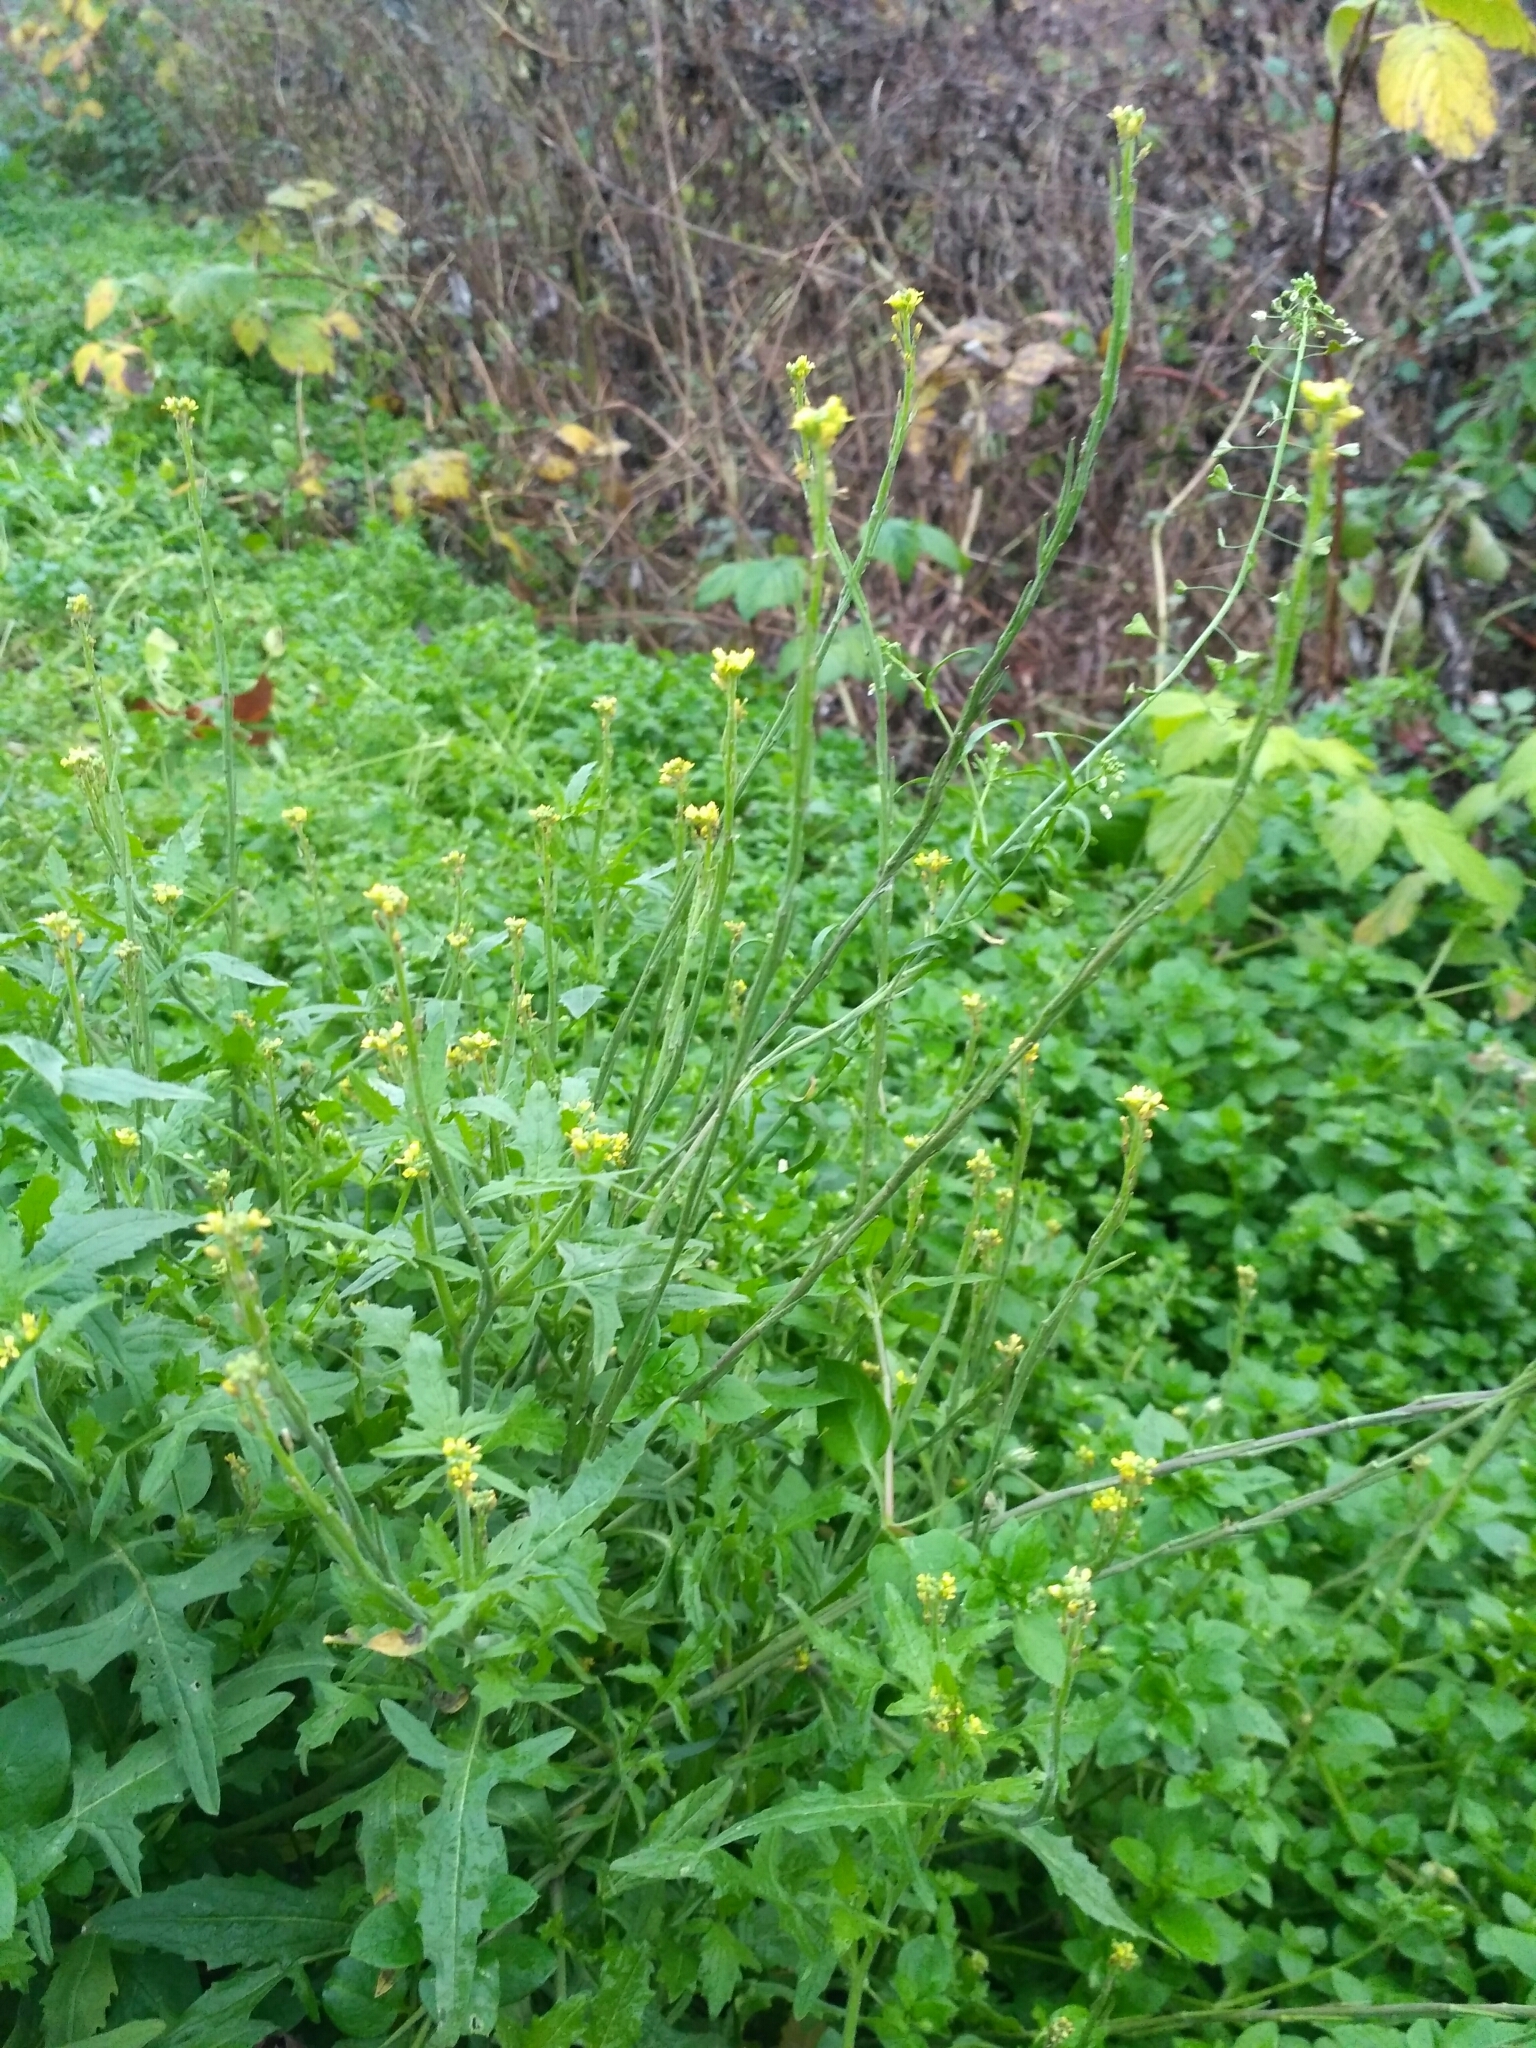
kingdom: Plantae
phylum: Tracheophyta
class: Magnoliopsida
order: Brassicales
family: Brassicaceae
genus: Sisymbrium
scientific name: Sisymbrium officinale
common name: Hedge mustard
